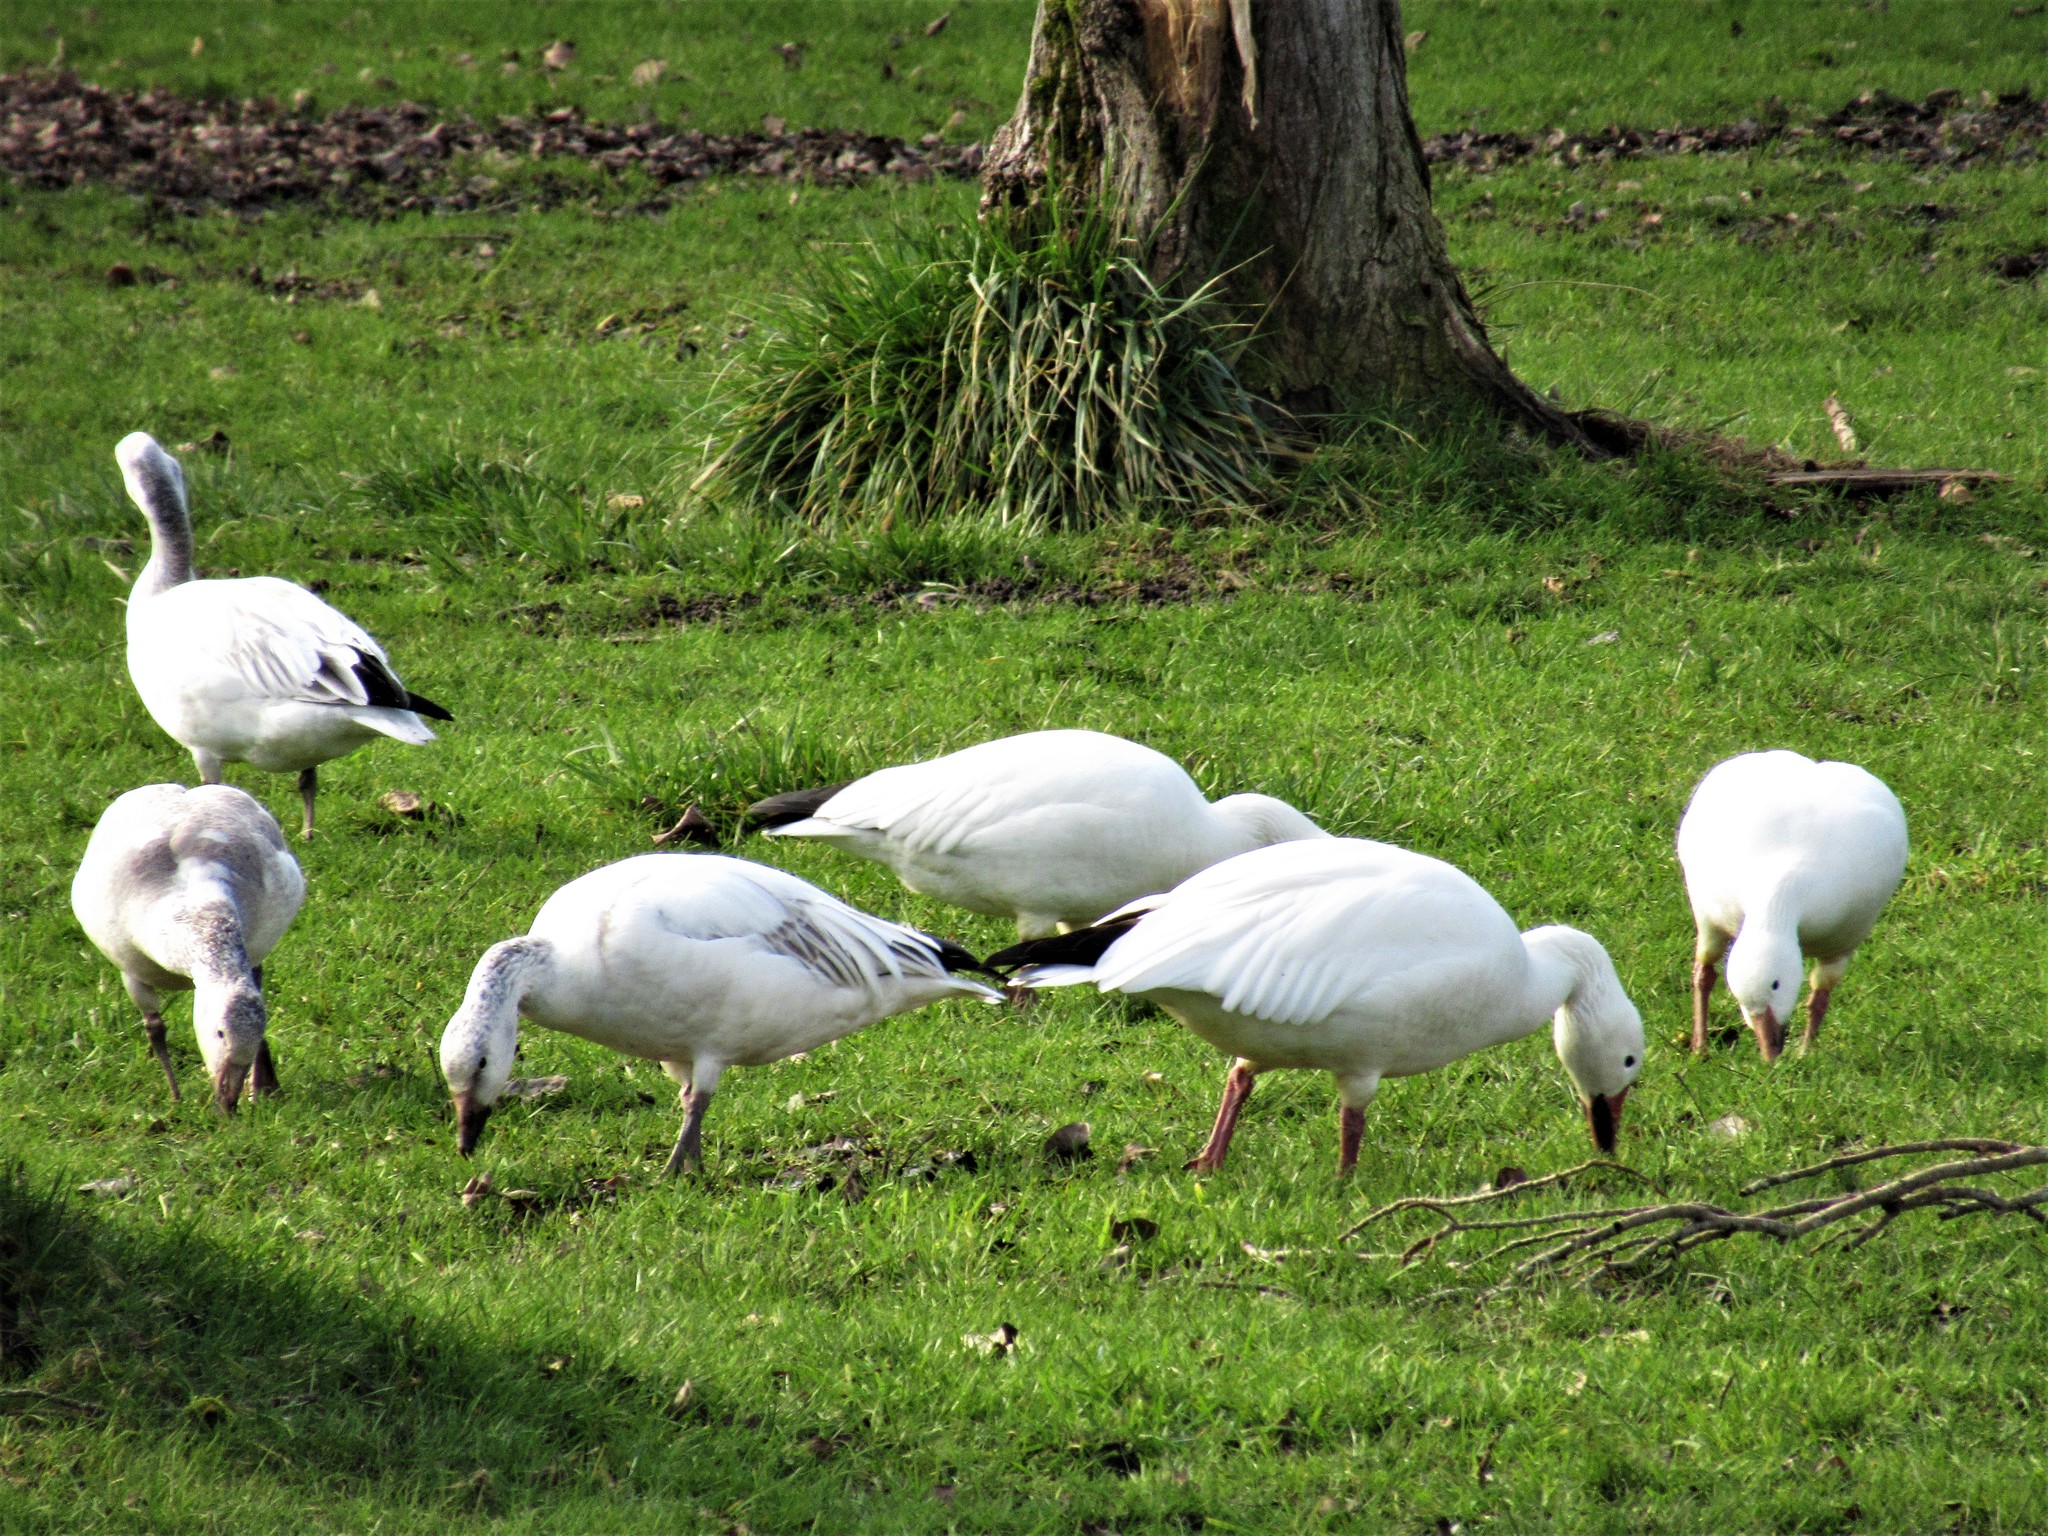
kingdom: Animalia
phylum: Chordata
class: Aves
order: Anseriformes
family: Anatidae
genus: Anser
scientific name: Anser caerulescens
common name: Snow goose
